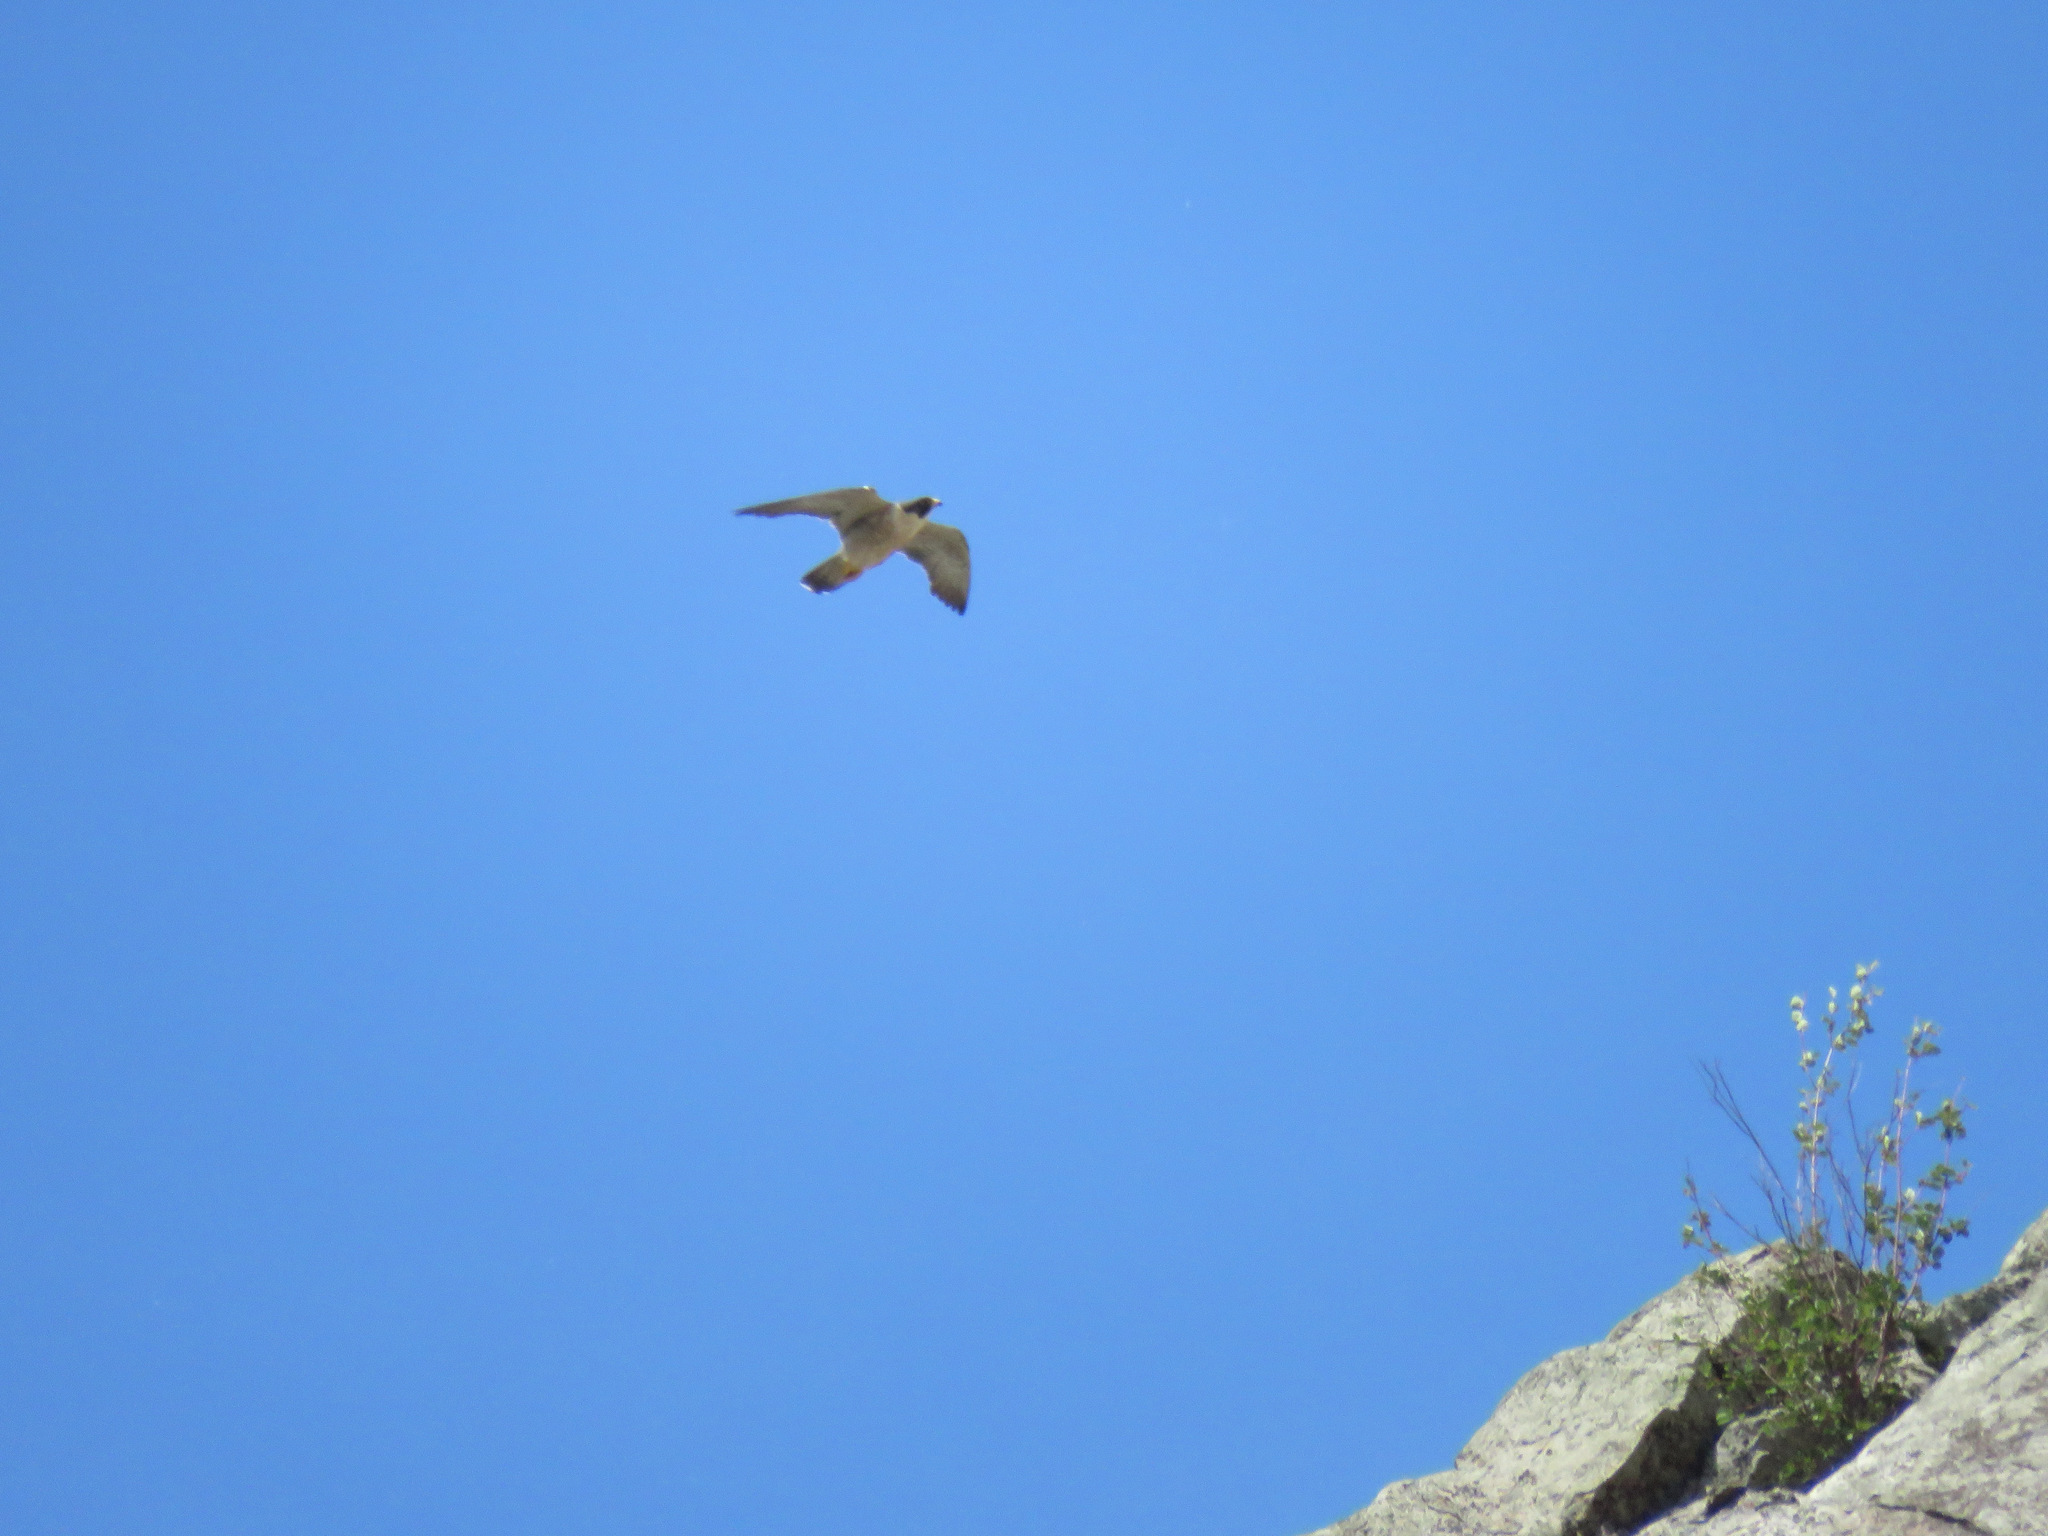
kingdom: Animalia
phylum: Chordata
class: Aves
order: Falconiformes
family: Falconidae
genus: Falco
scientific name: Falco peregrinus
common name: Peregrine falcon
